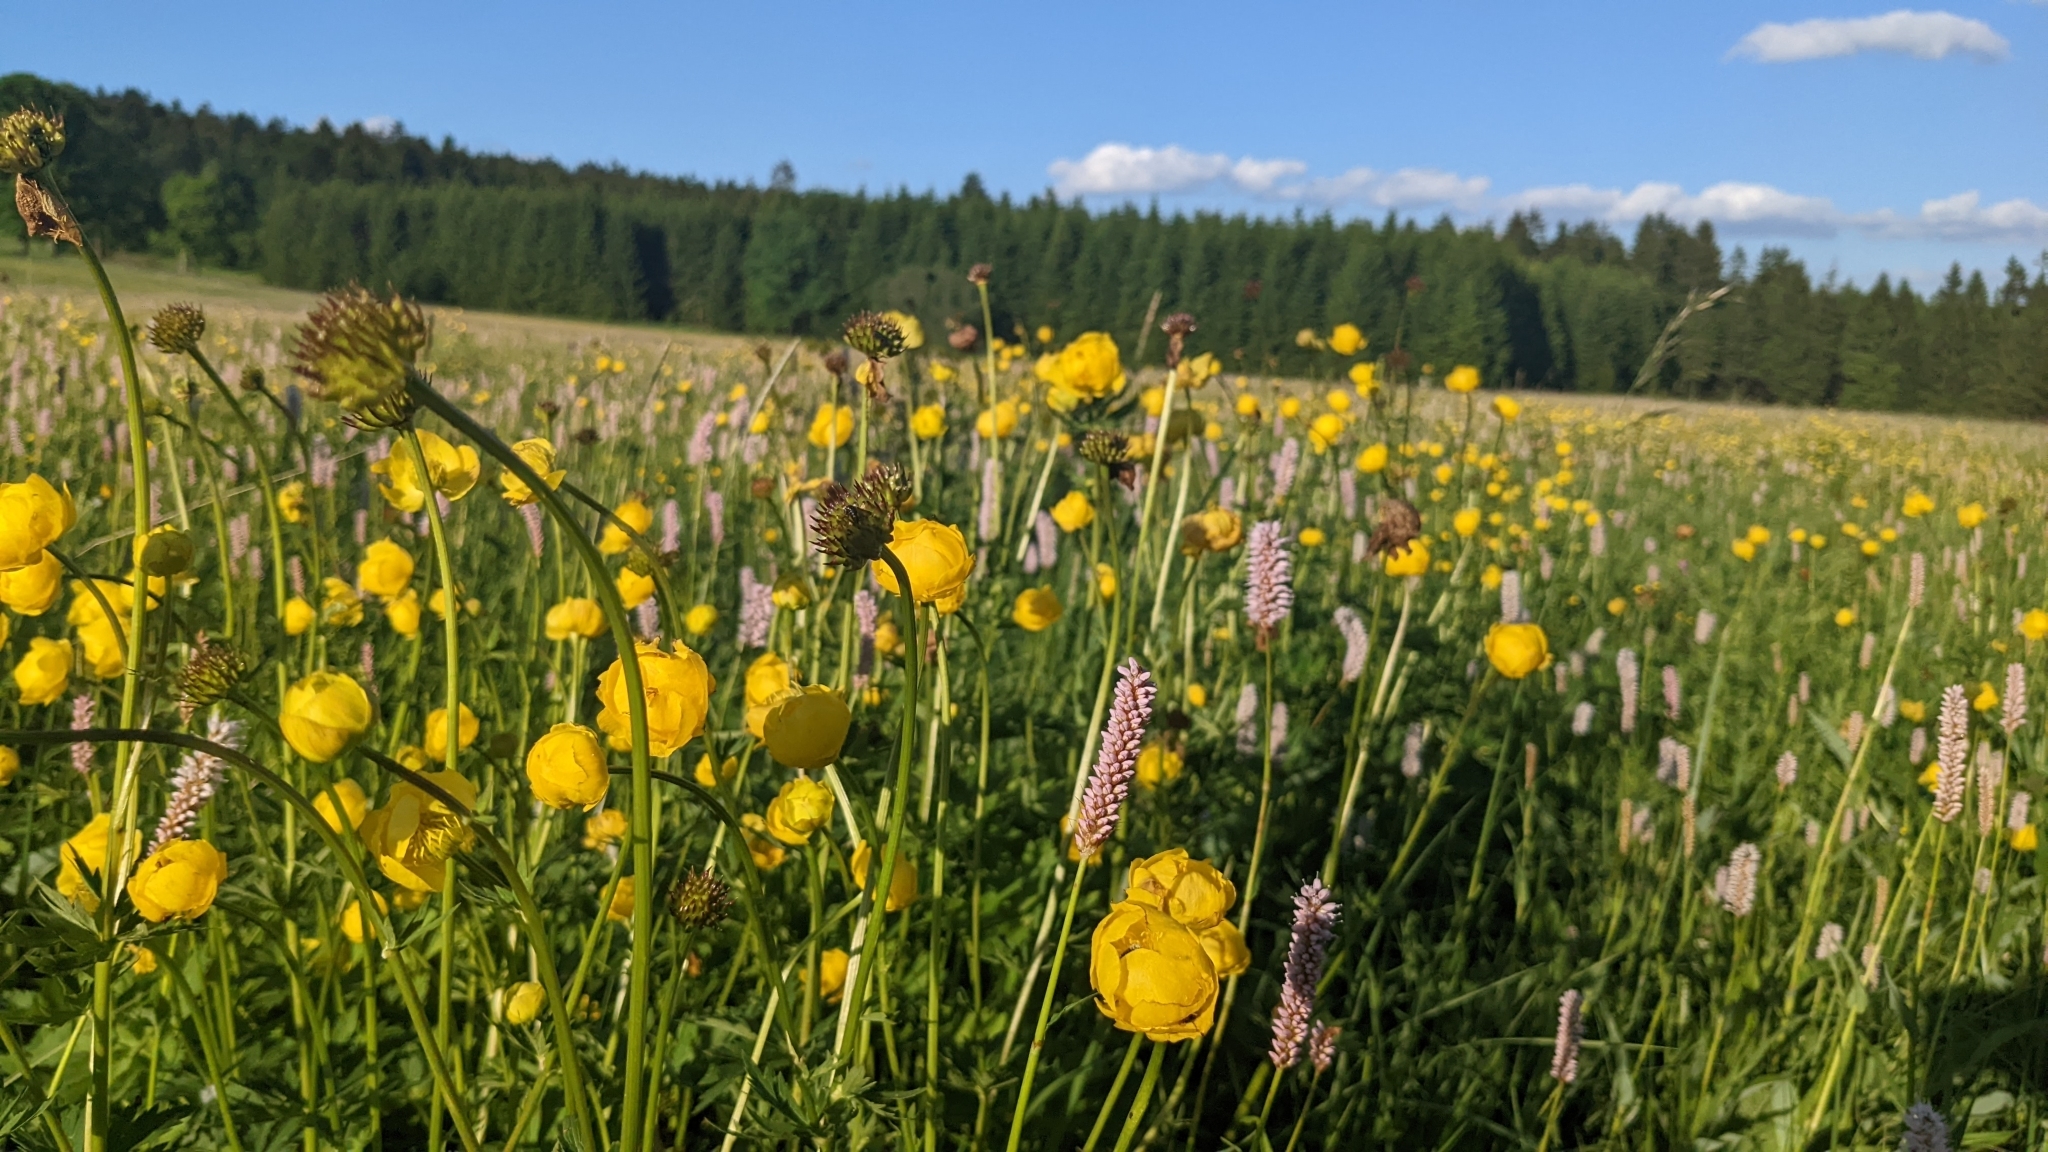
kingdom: Plantae
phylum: Tracheophyta
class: Magnoliopsida
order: Ranunculales
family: Ranunculaceae
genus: Trollius
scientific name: Trollius europaeus
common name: European globeflower
